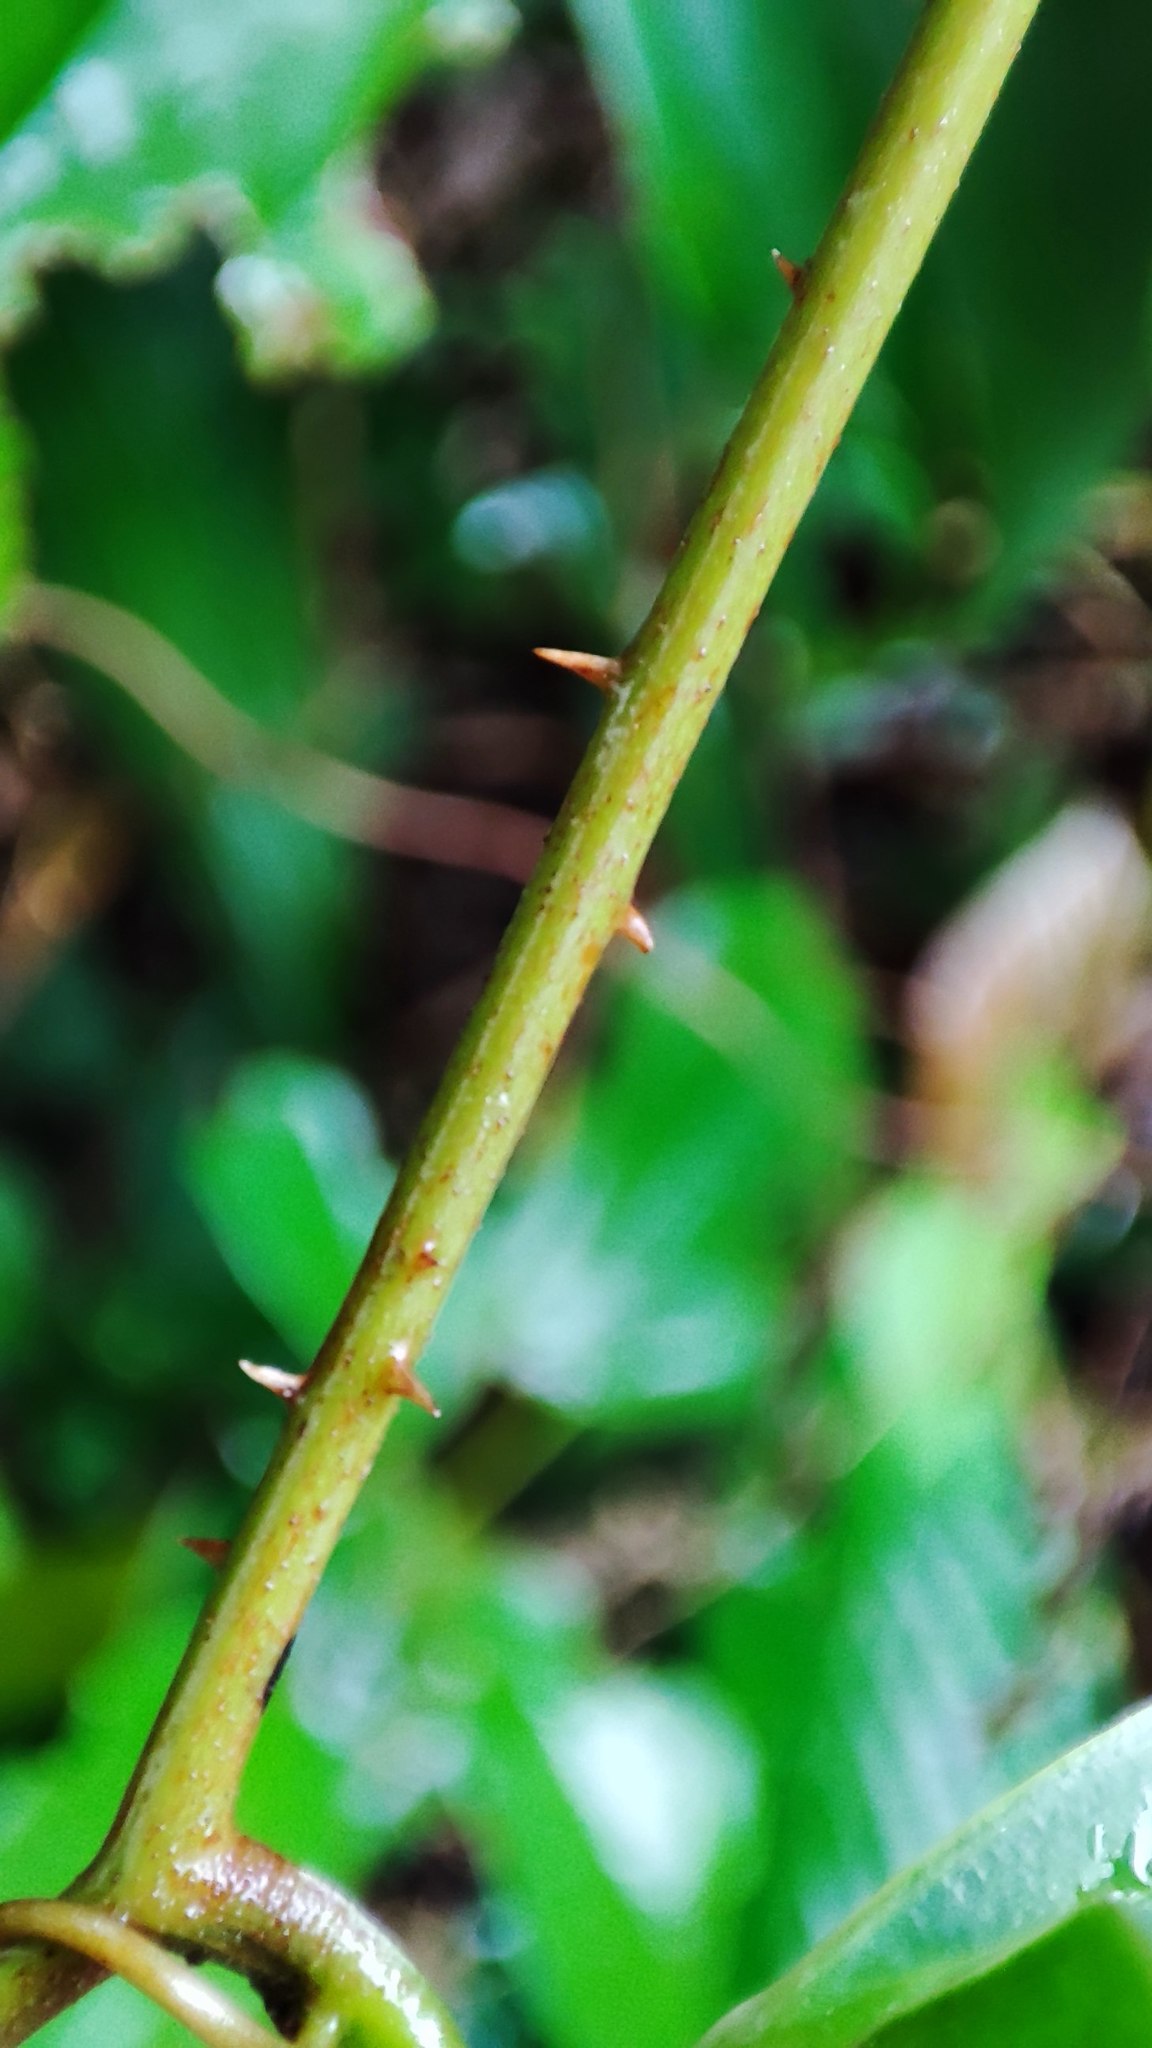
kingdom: Plantae
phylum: Tracheophyta
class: Liliopsida
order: Liliales
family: Smilacaceae
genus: Smilax
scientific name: Smilax bracteata
